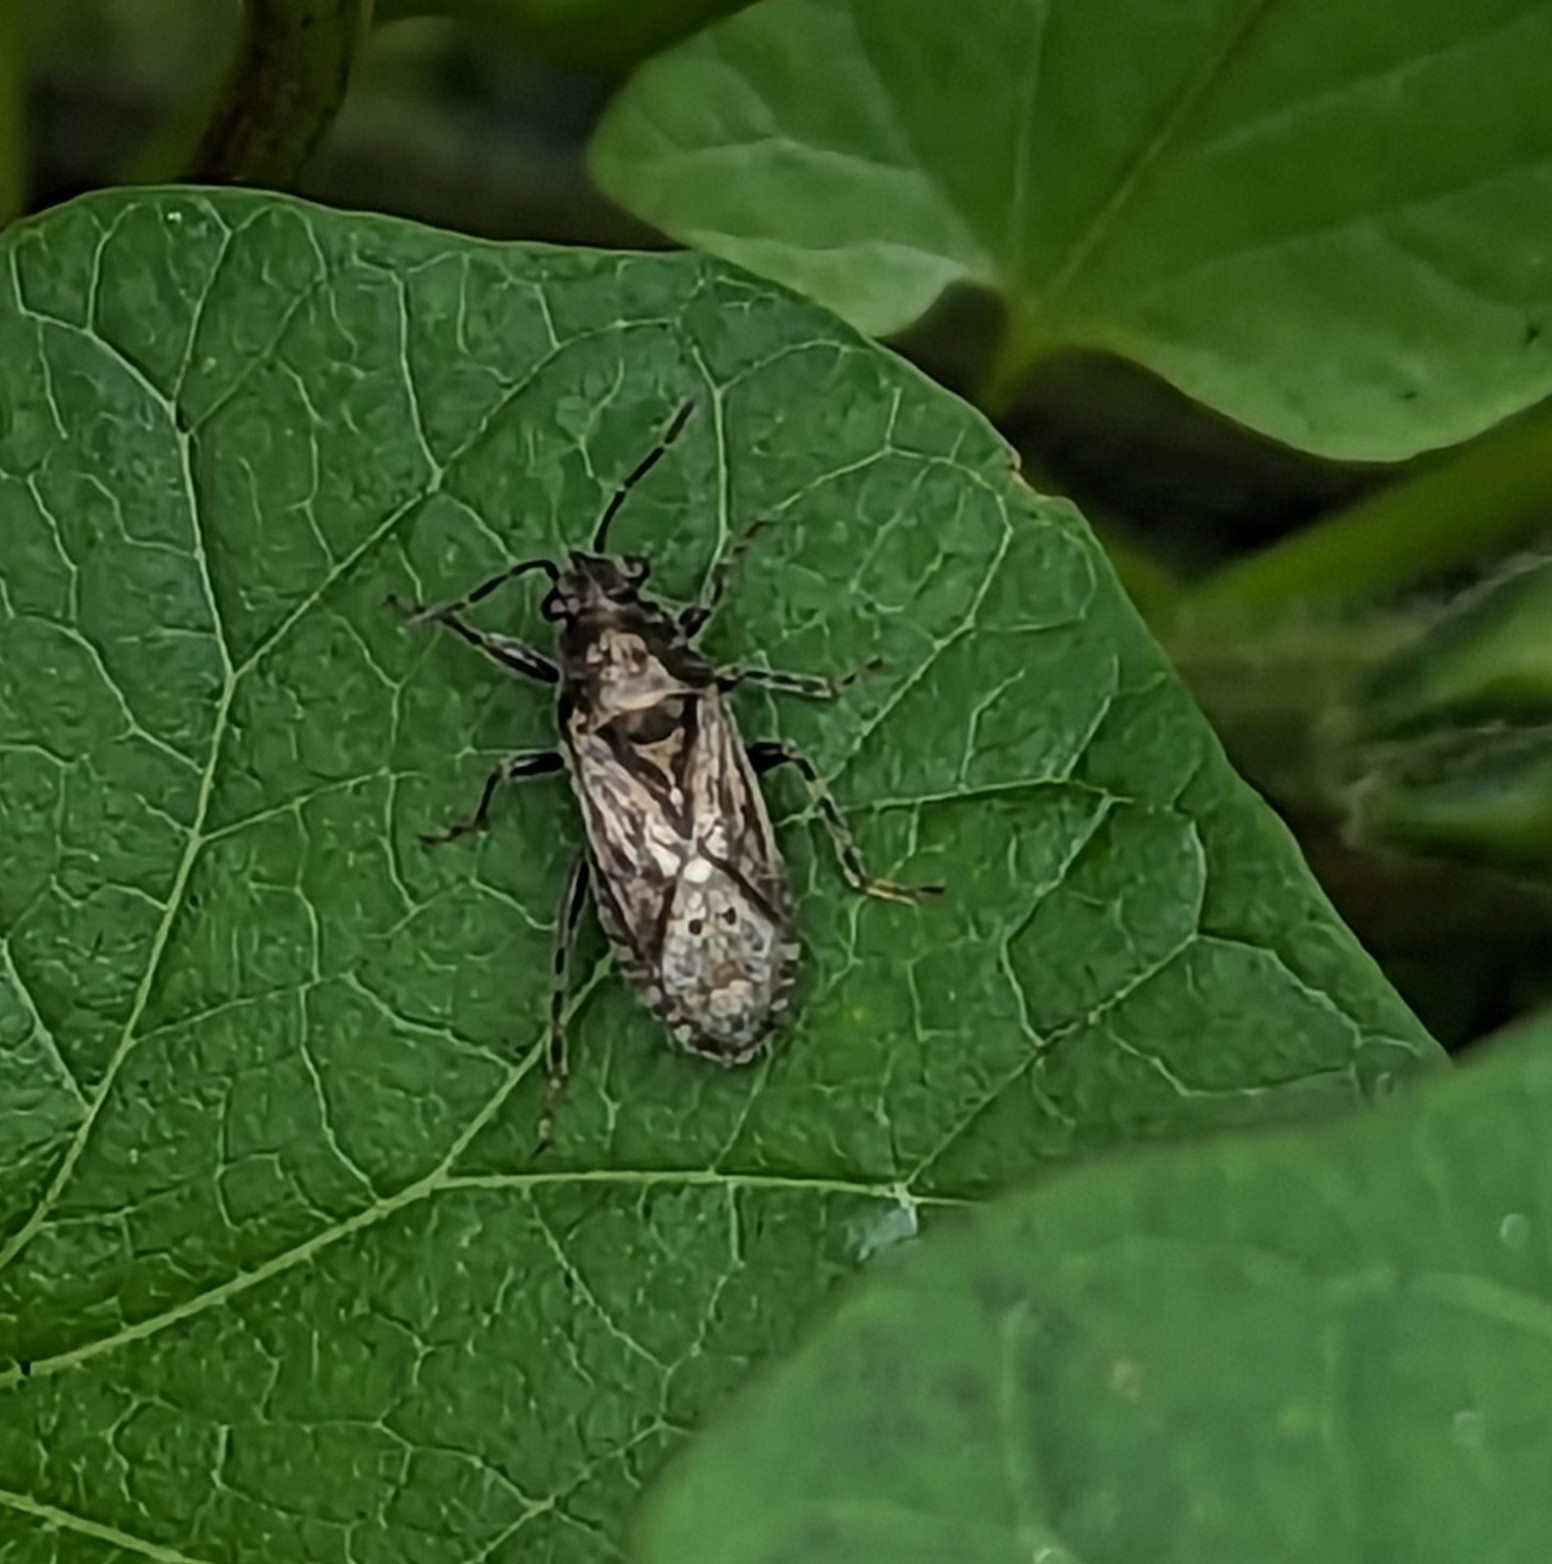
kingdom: Animalia
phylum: Arthropoda
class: Insecta
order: Hemiptera
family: Heterogastridae
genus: Heterogaster
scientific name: Heterogaster urticae
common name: Seed bug
